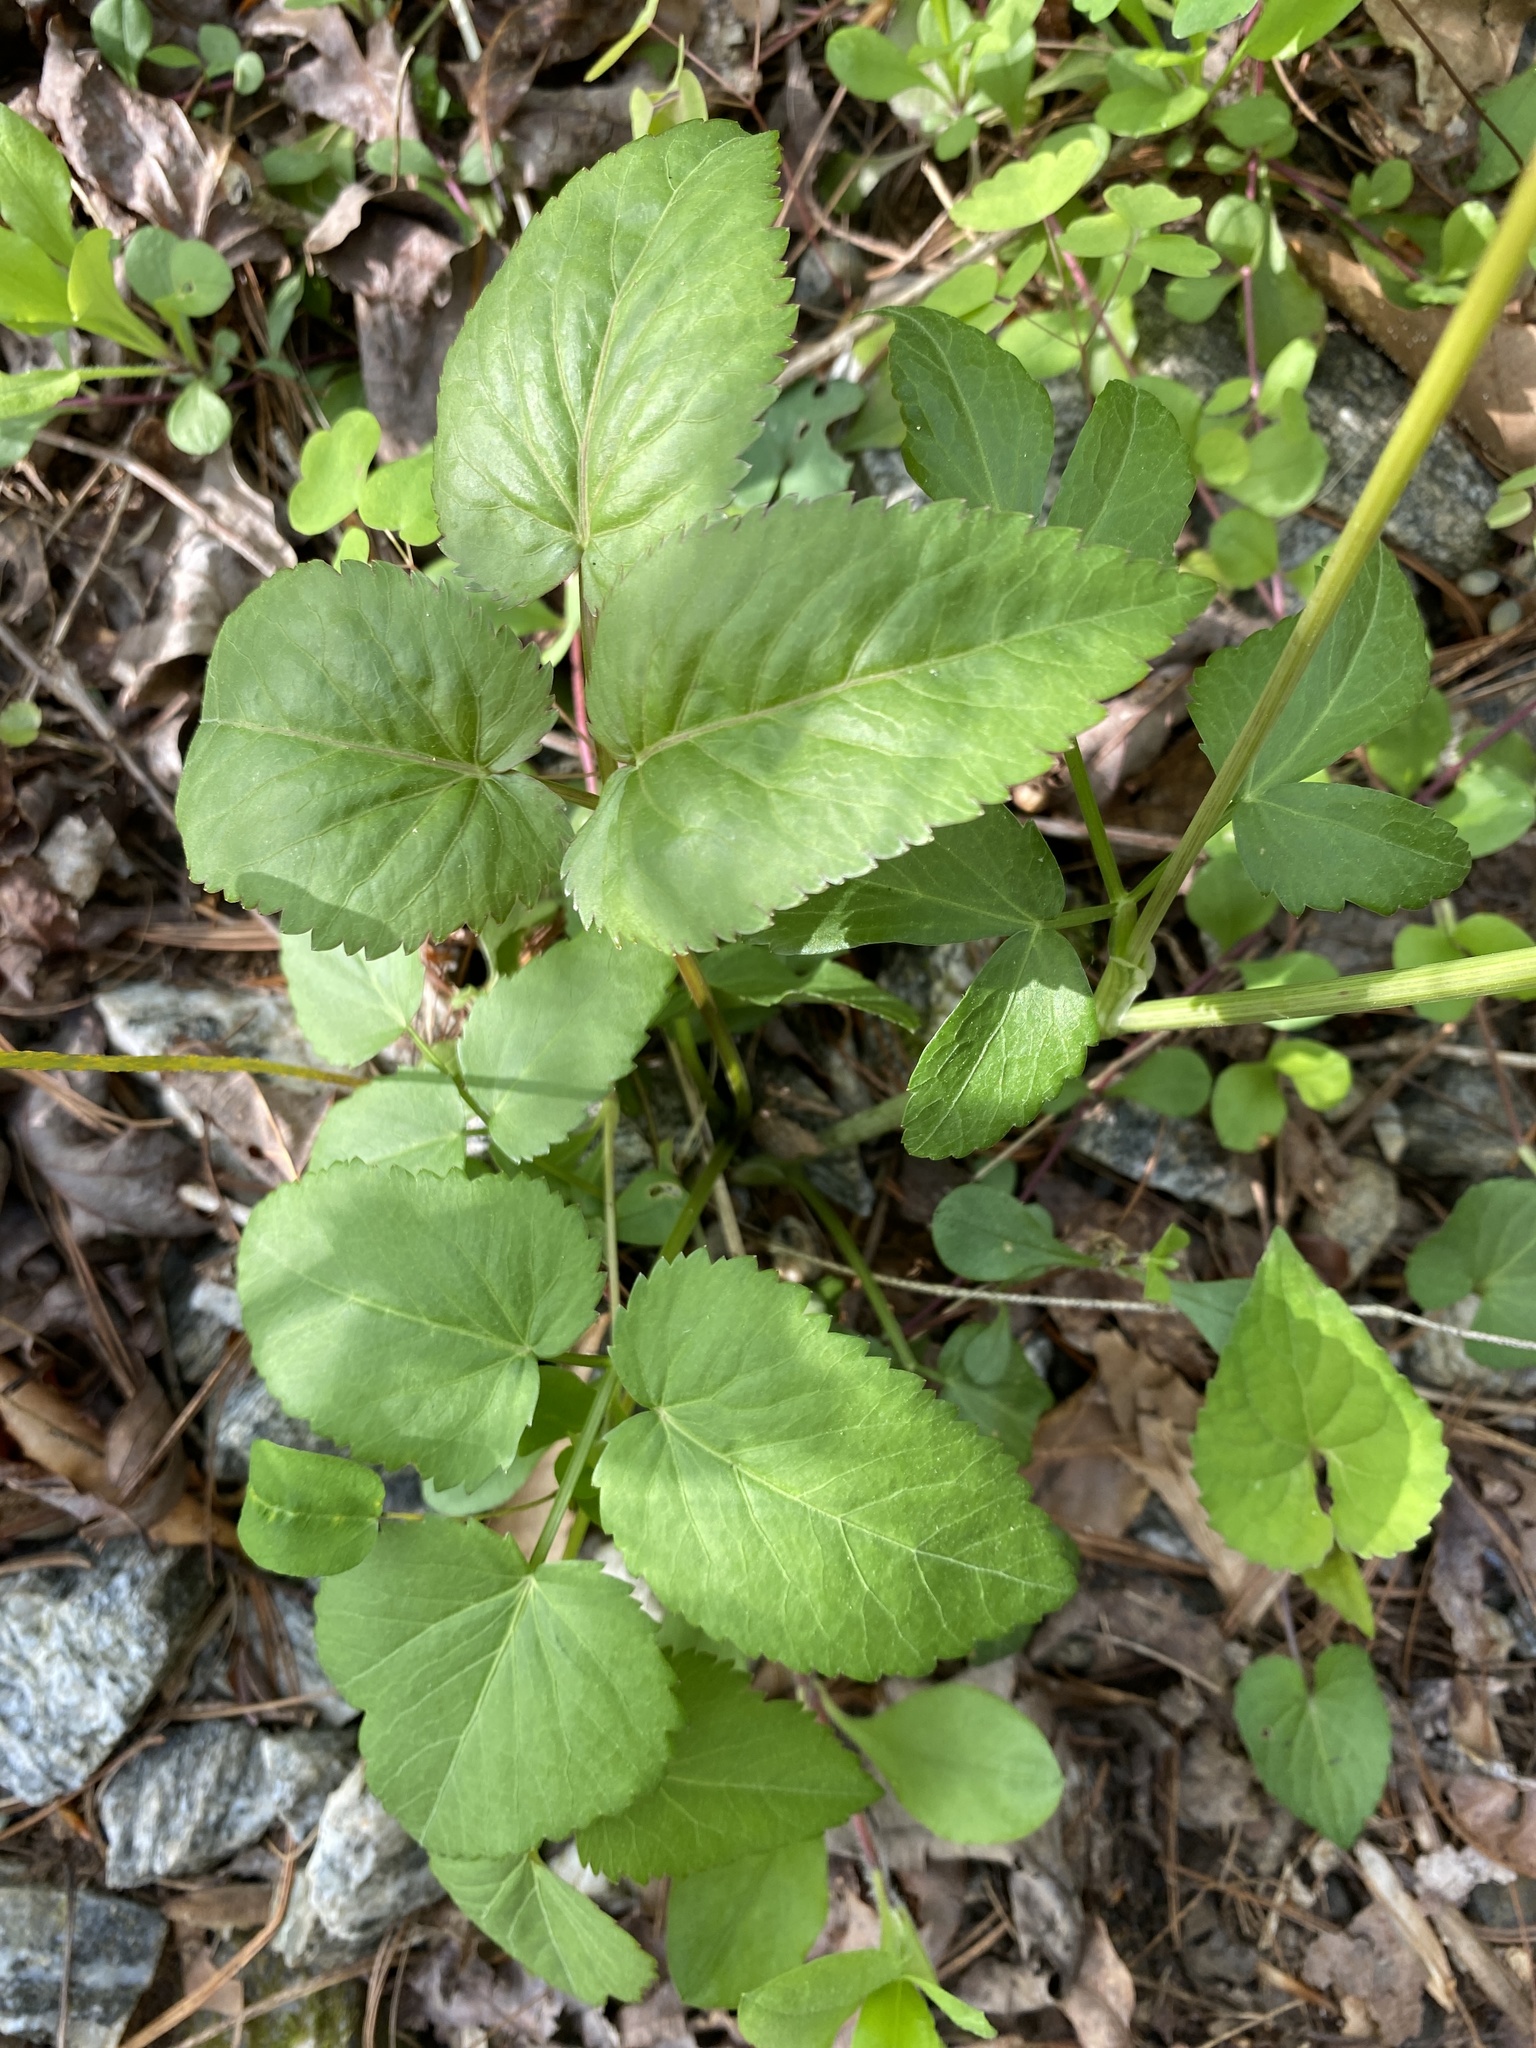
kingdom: Plantae
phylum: Tracheophyta
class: Magnoliopsida
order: Apiales
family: Apiaceae
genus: Thaspium
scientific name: Thaspium trifoliatum
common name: Purple meadow-parsnip
